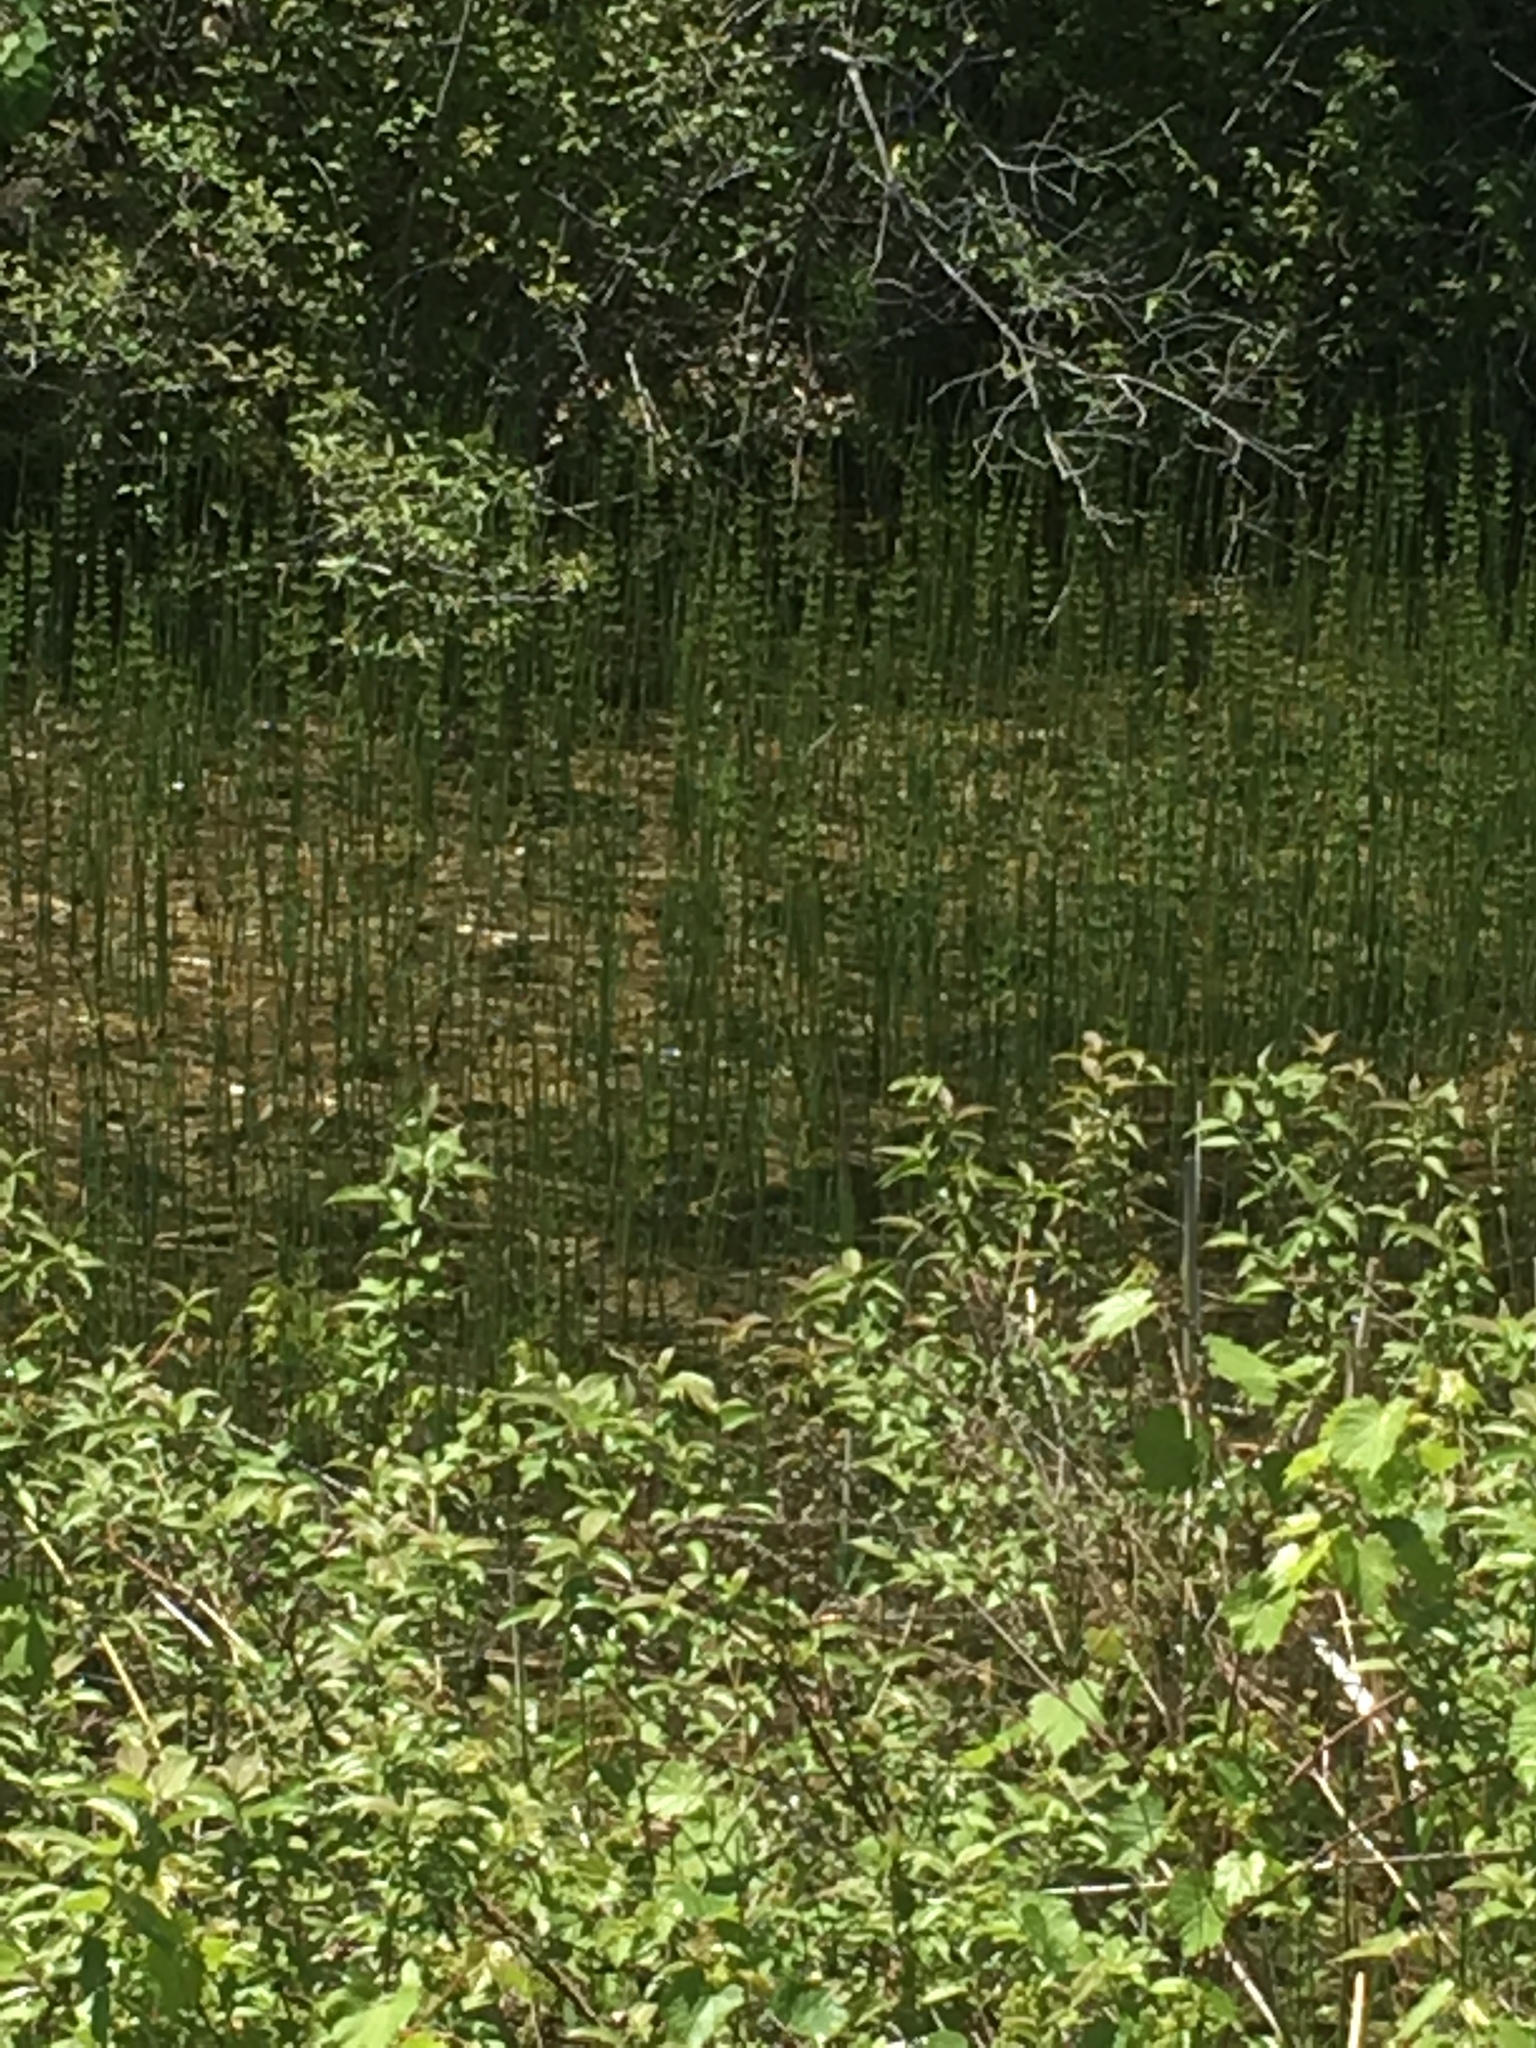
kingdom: Plantae
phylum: Tracheophyta
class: Polypodiopsida
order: Equisetales
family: Equisetaceae
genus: Equisetum
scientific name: Equisetum fluviatile
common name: Water horsetail
